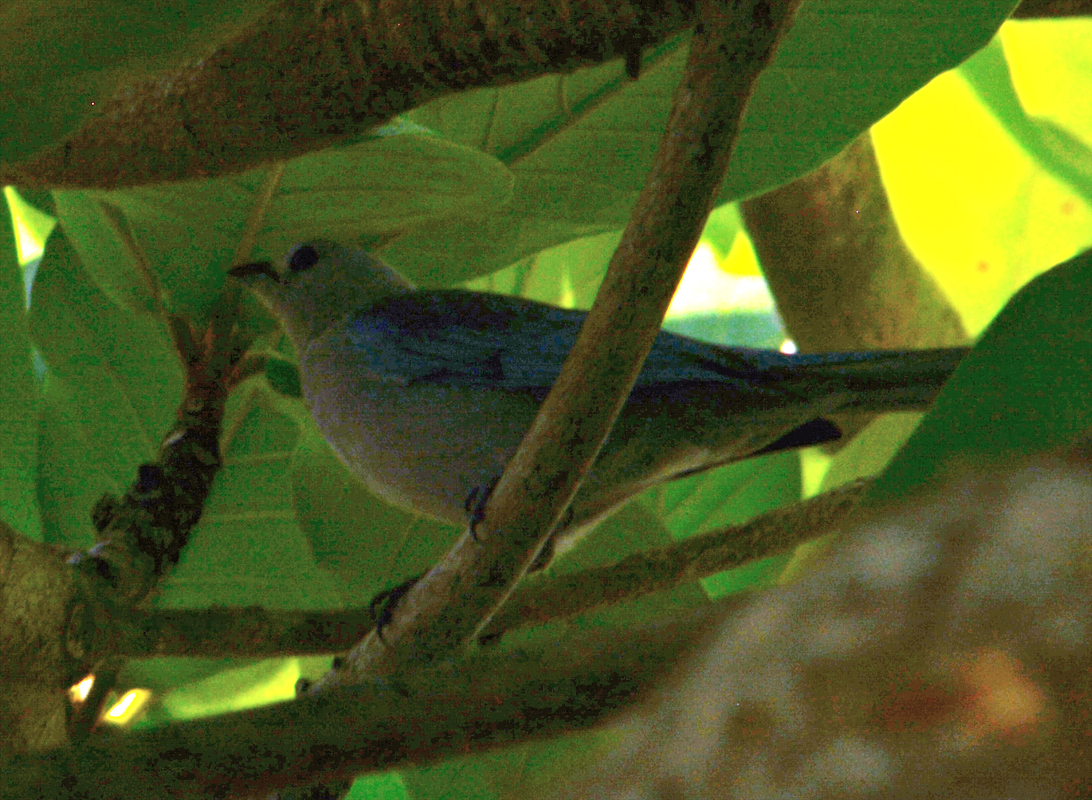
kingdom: Animalia
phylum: Chordata
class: Aves
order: Passeriformes
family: Thraupidae
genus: Thraupis
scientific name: Thraupis episcopus
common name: Blue-grey tanager
